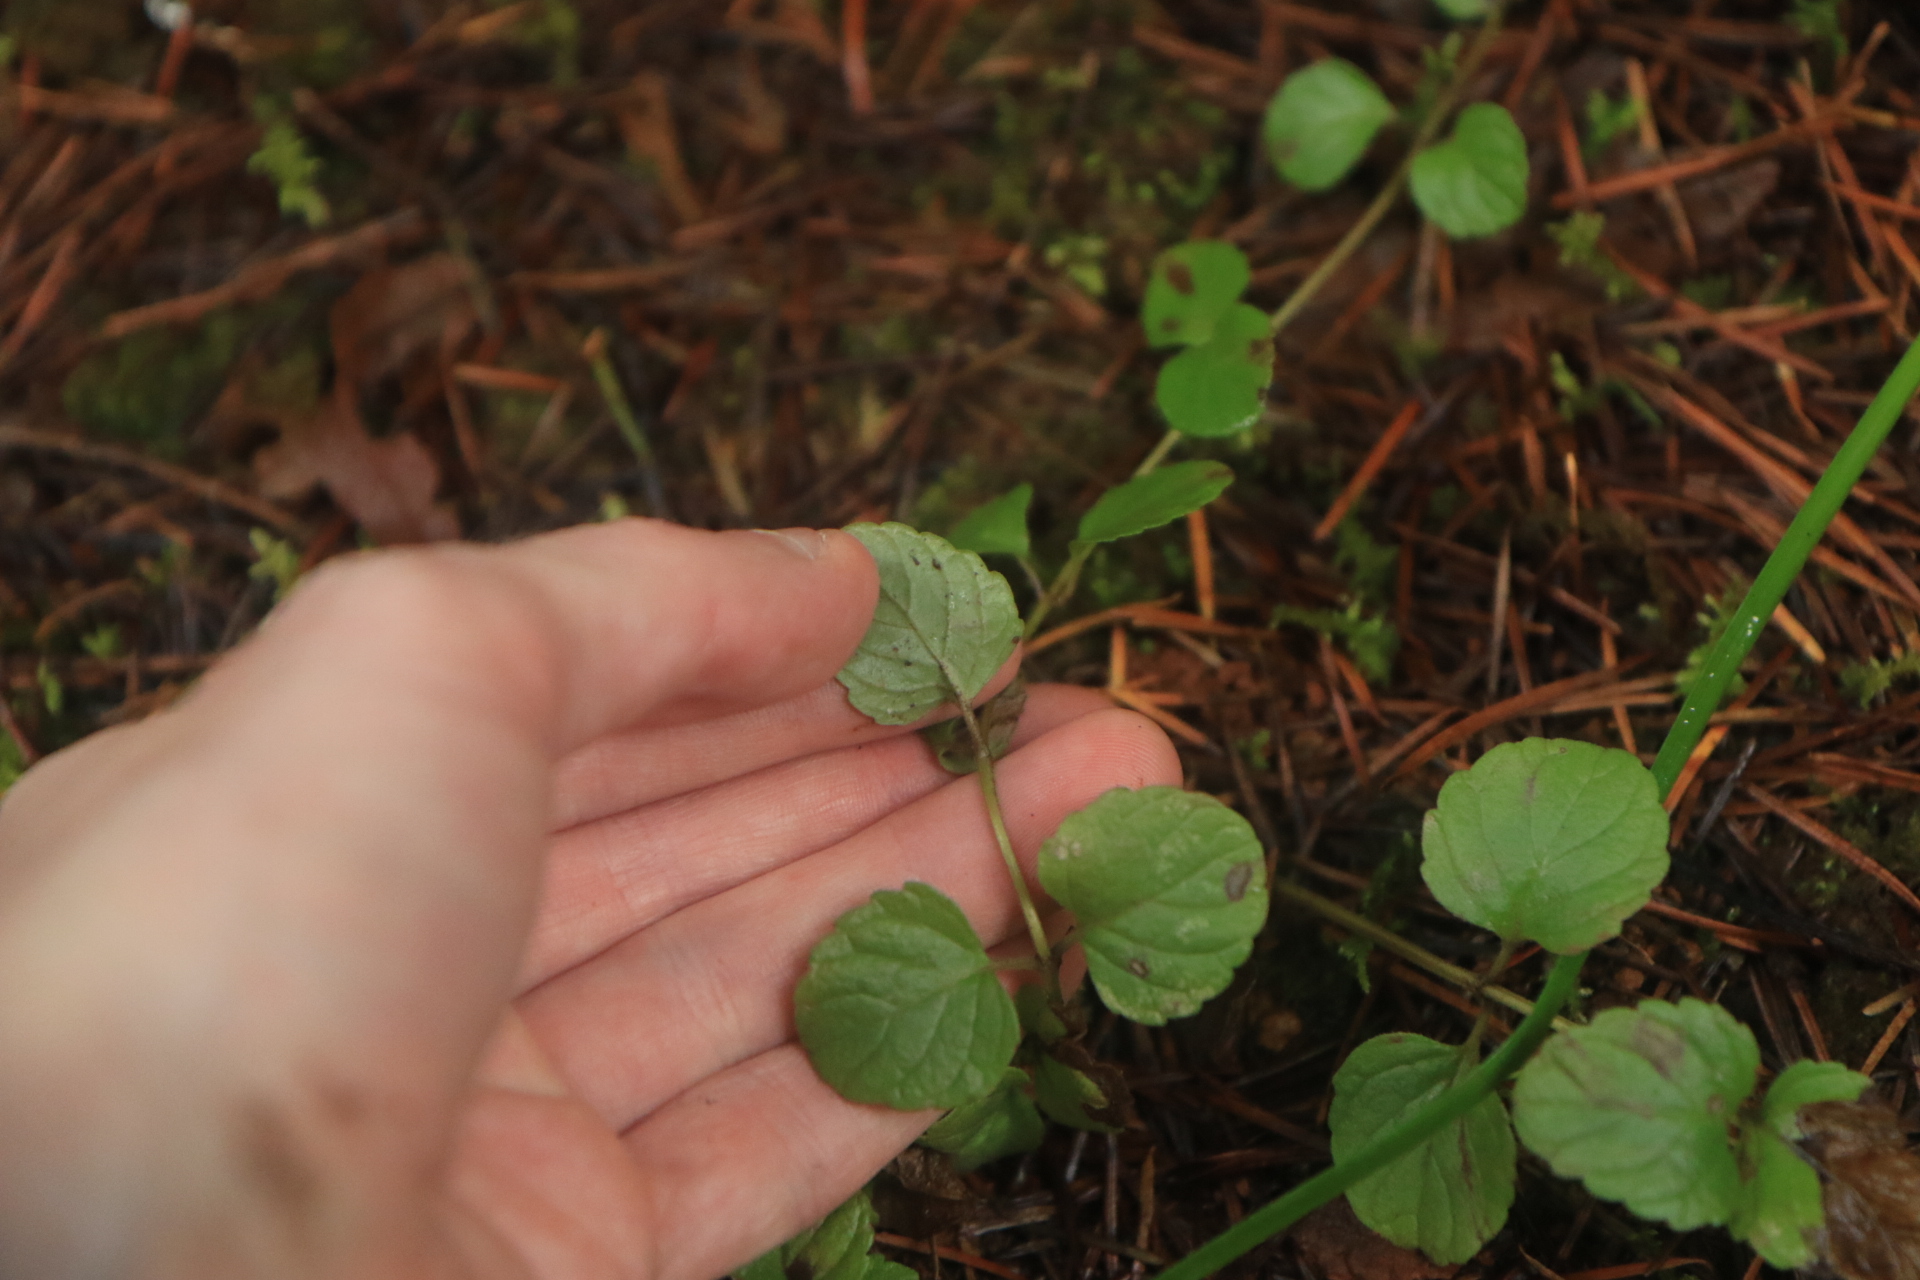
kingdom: Plantae
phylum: Tracheophyta
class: Magnoliopsida
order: Lamiales
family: Lamiaceae
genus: Micromeria
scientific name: Micromeria douglasii
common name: Yerba buena
